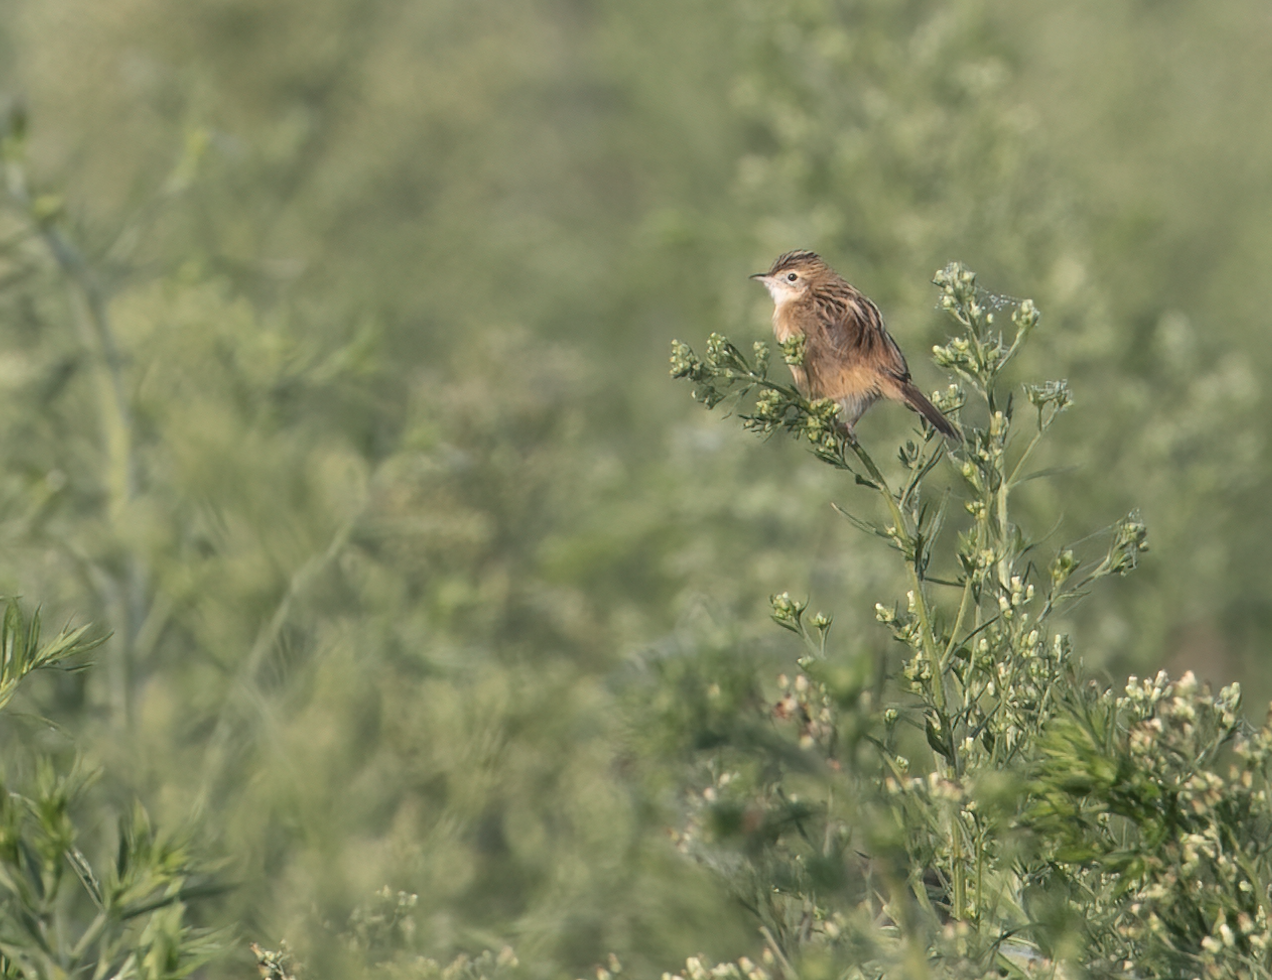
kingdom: Animalia
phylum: Chordata
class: Aves
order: Passeriformes
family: Cisticolidae
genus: Cisticola
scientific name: Cisticola juncidis
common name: Zitting cisticola
